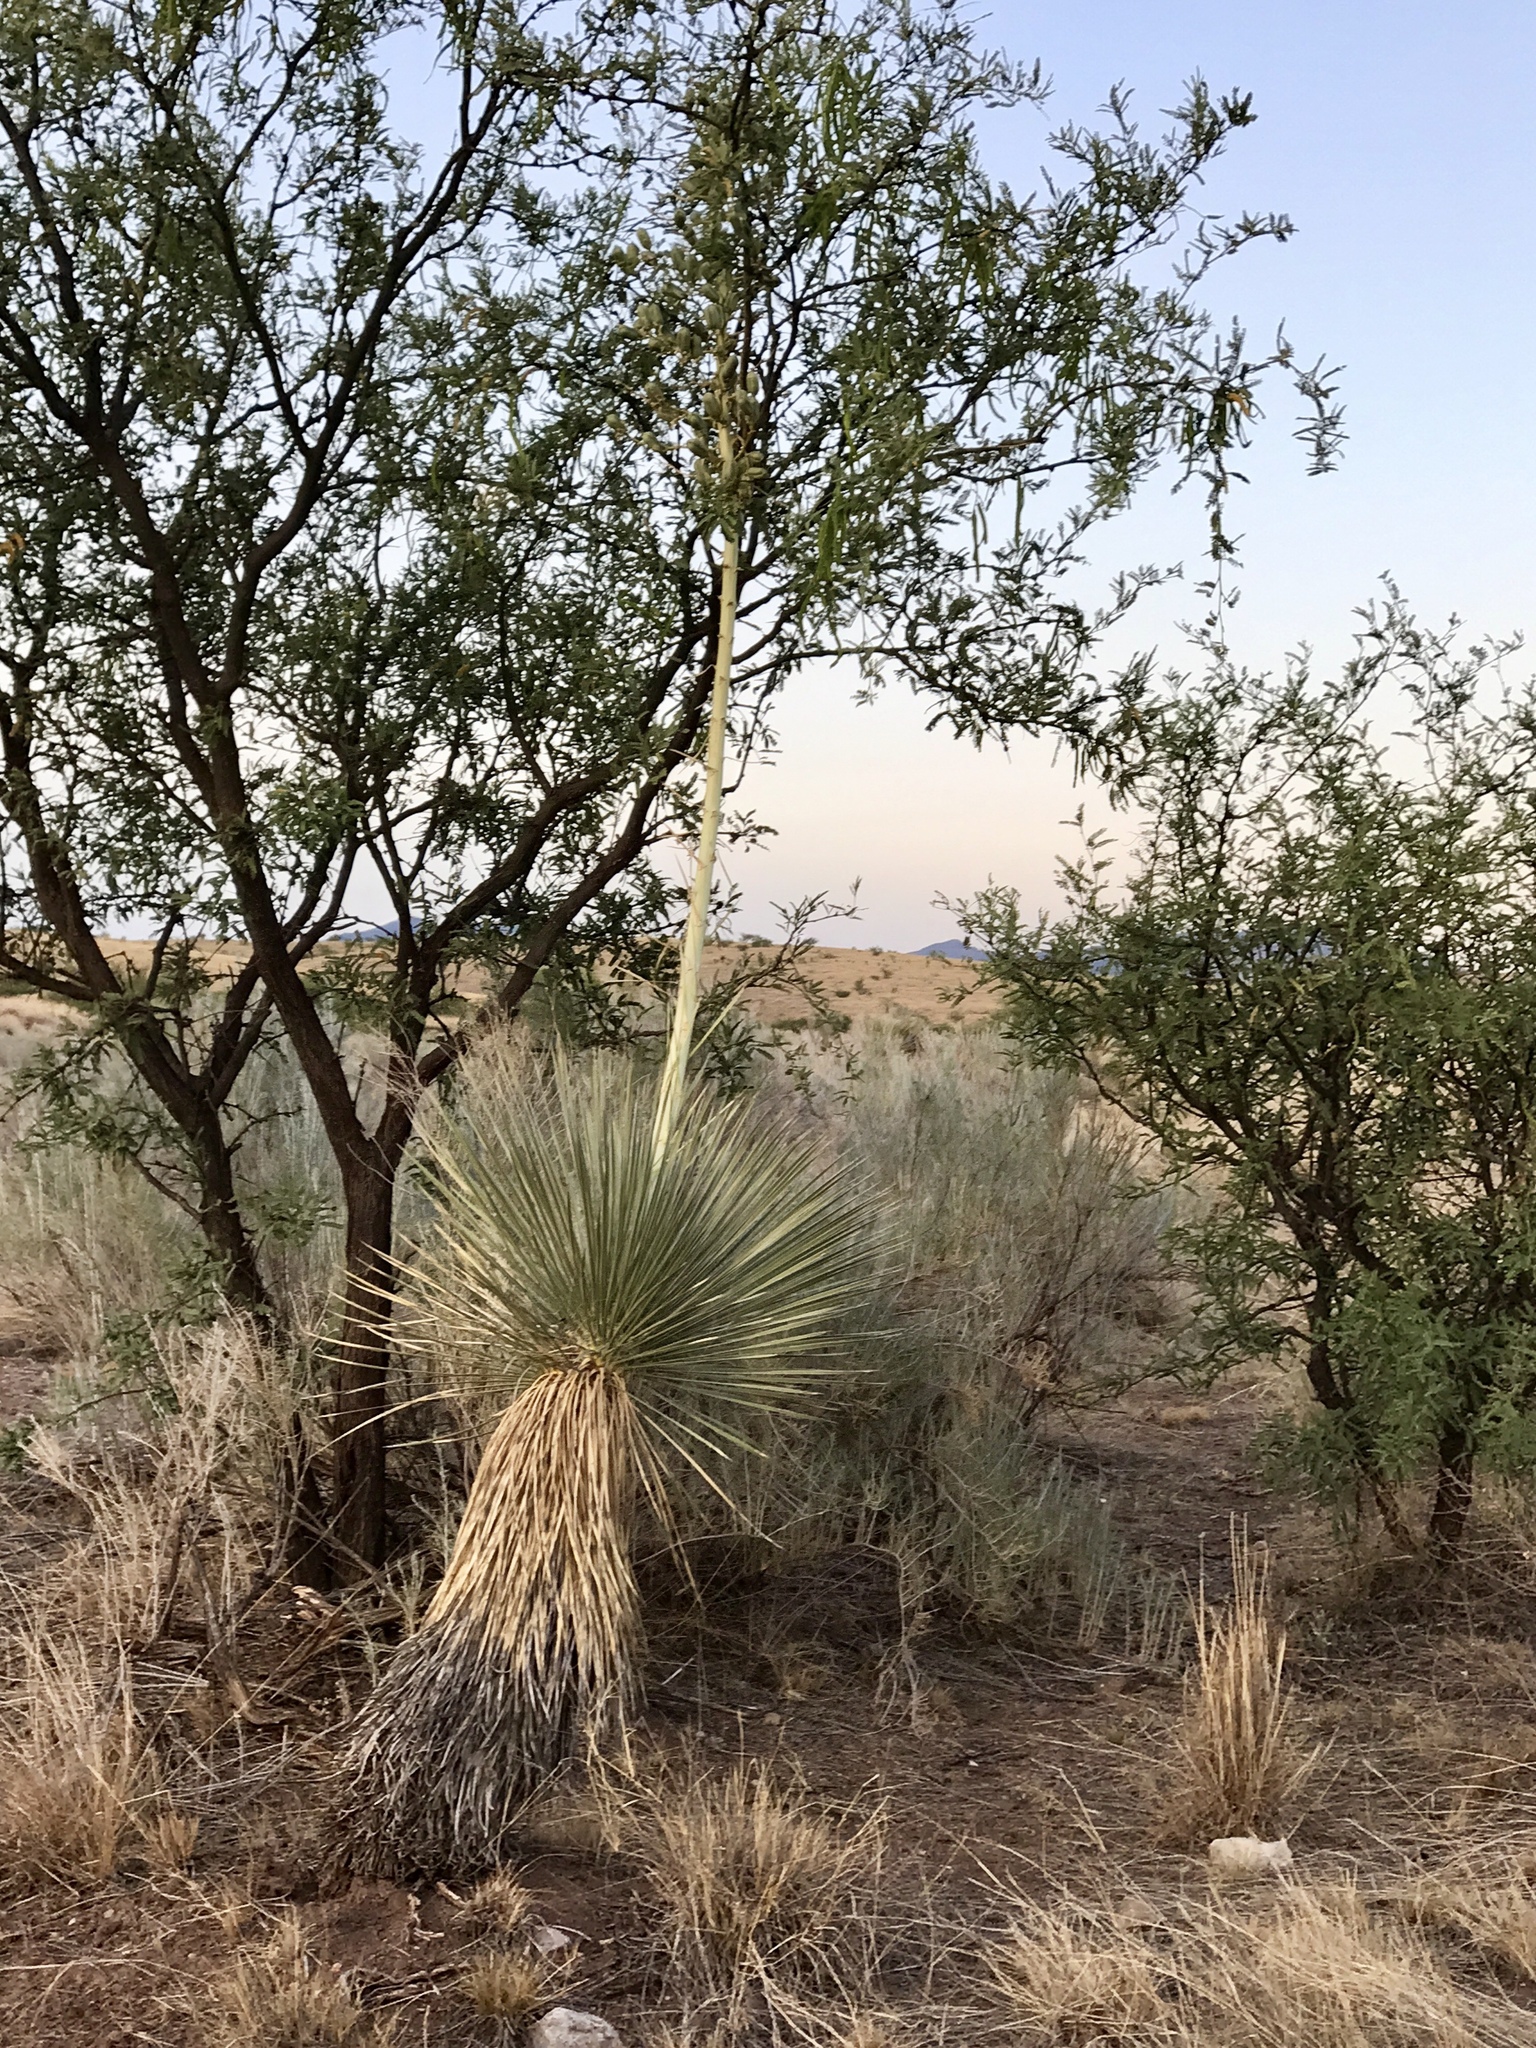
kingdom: Plantae
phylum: Tracheophyta
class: Liliopsida
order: Asparagales
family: Asparagaceae
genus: Yucca
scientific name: Yucca elata
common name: Palmella
